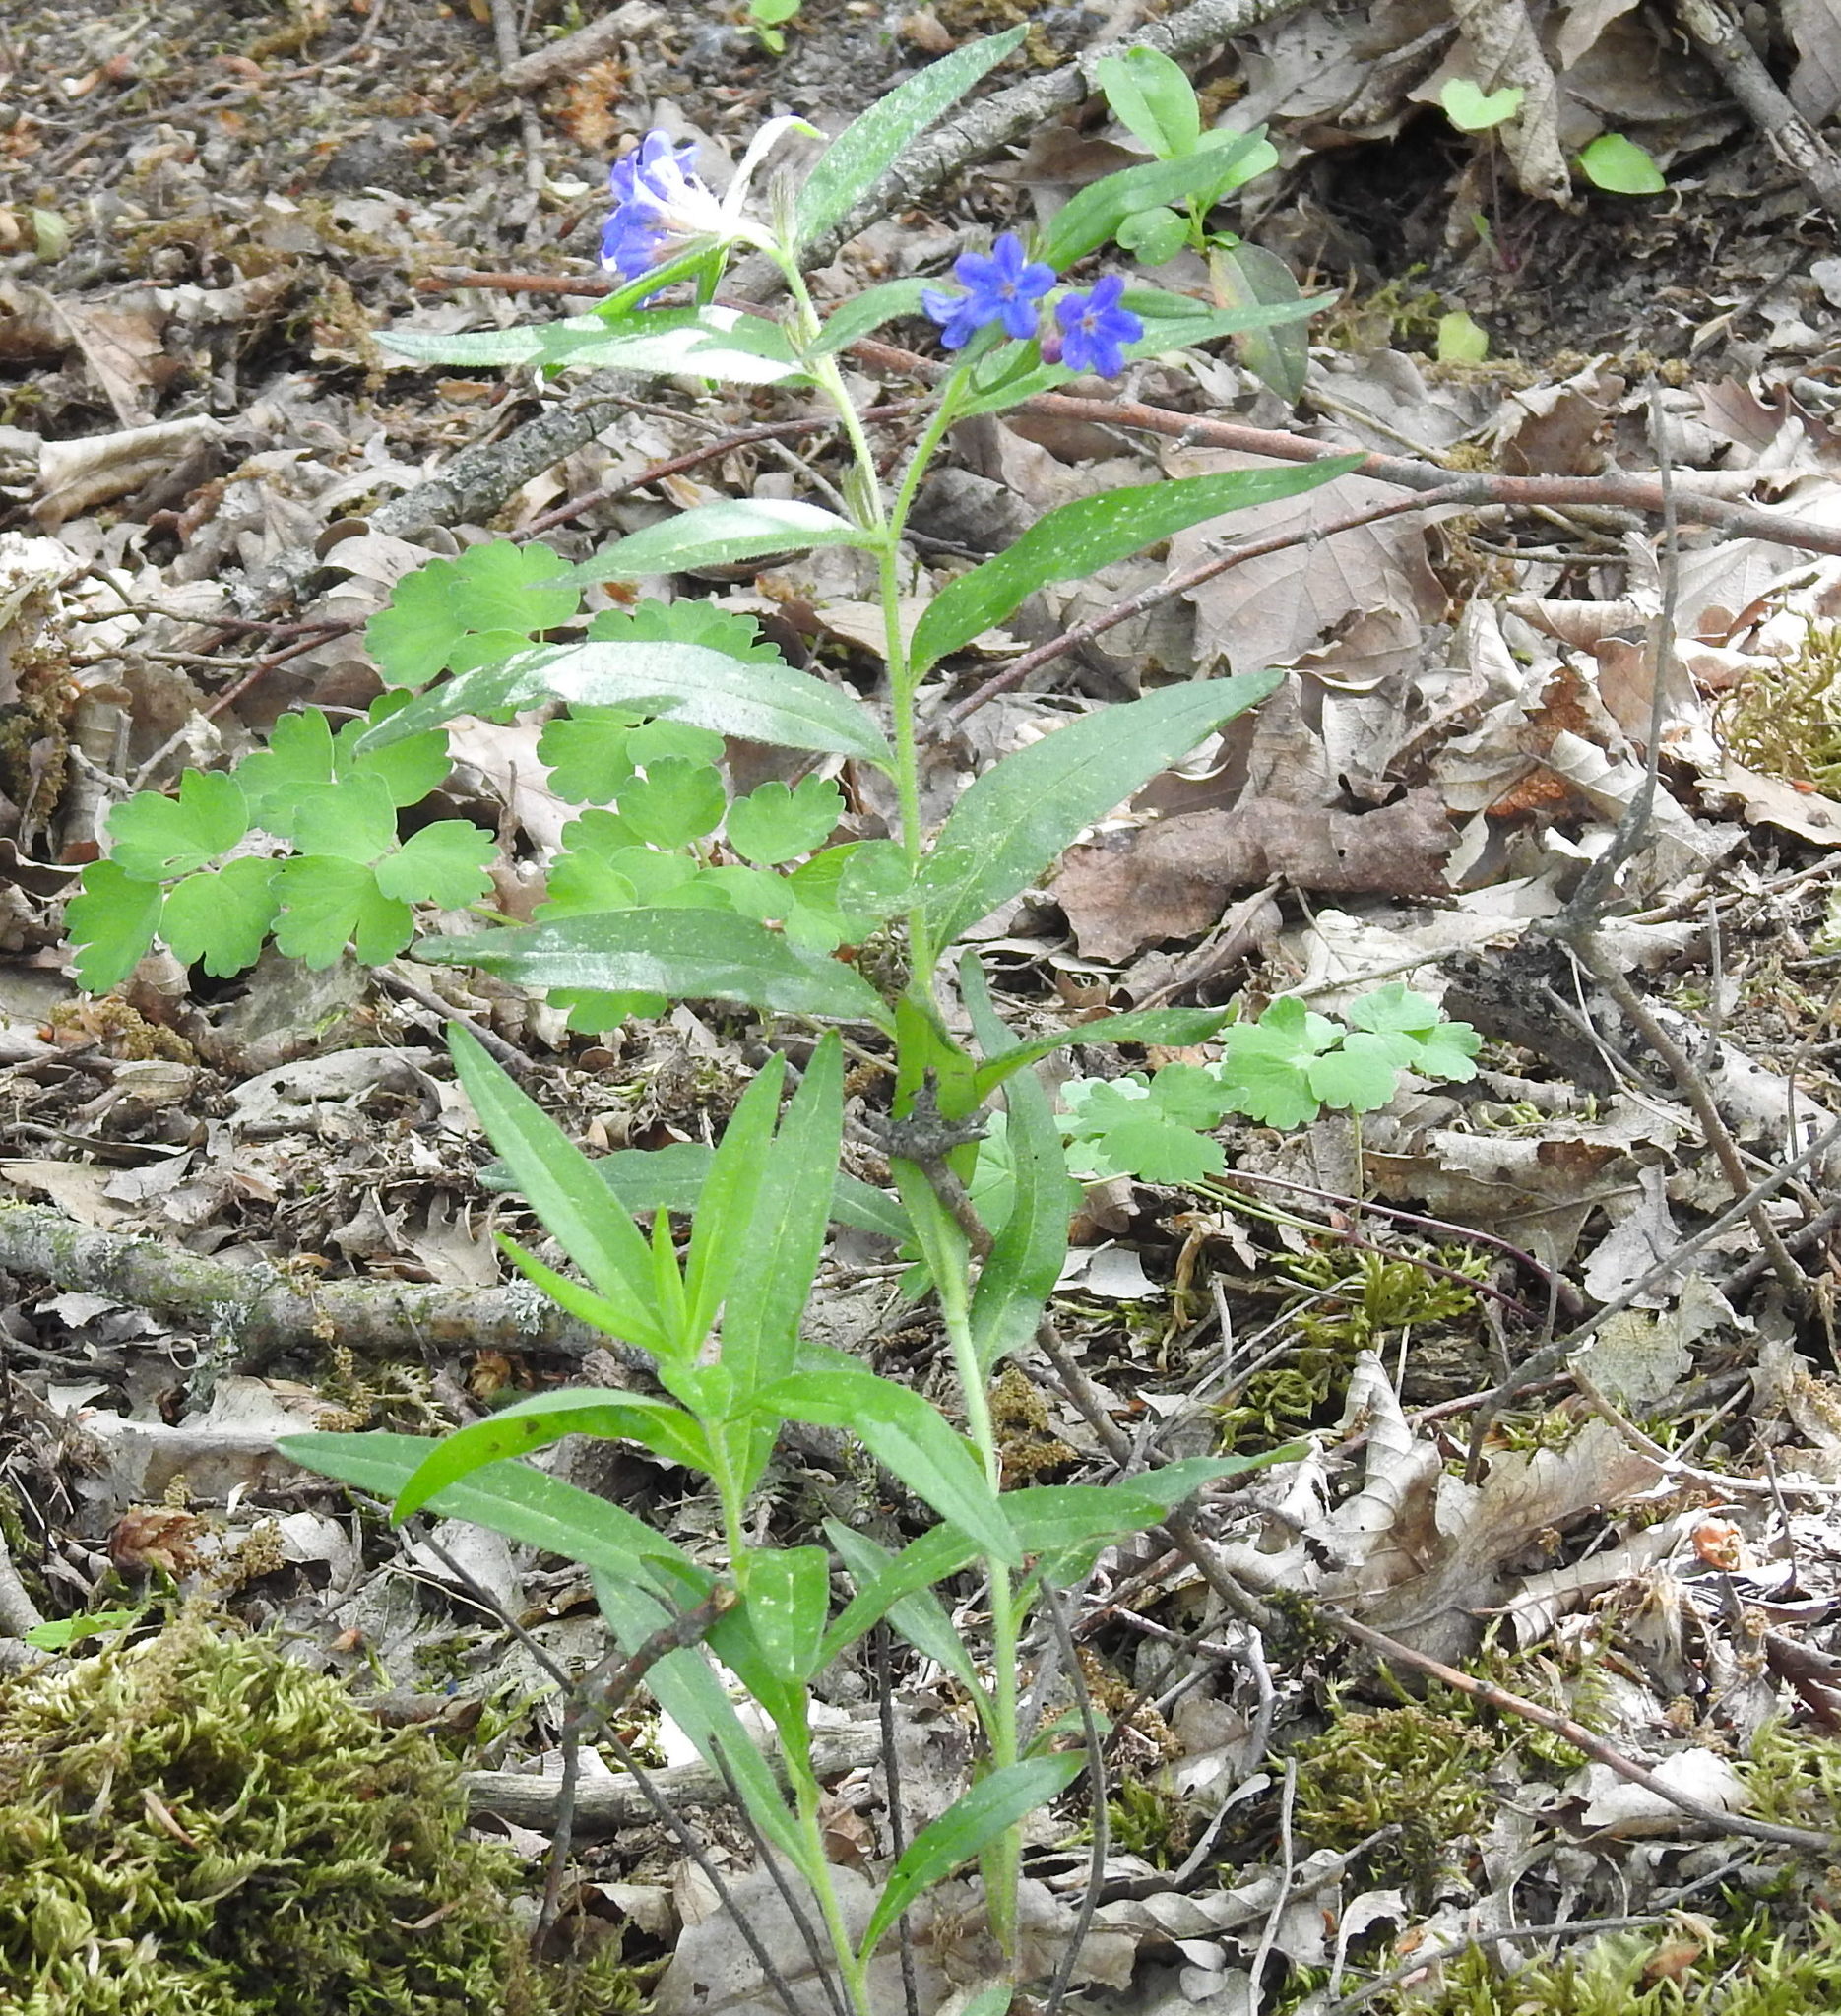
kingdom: Plantae
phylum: Tracheophyta
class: Magnoliopsida
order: Boraginales
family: Boraginaceae
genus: Aegonychon
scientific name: Aegonychon purpurocaeruleum
